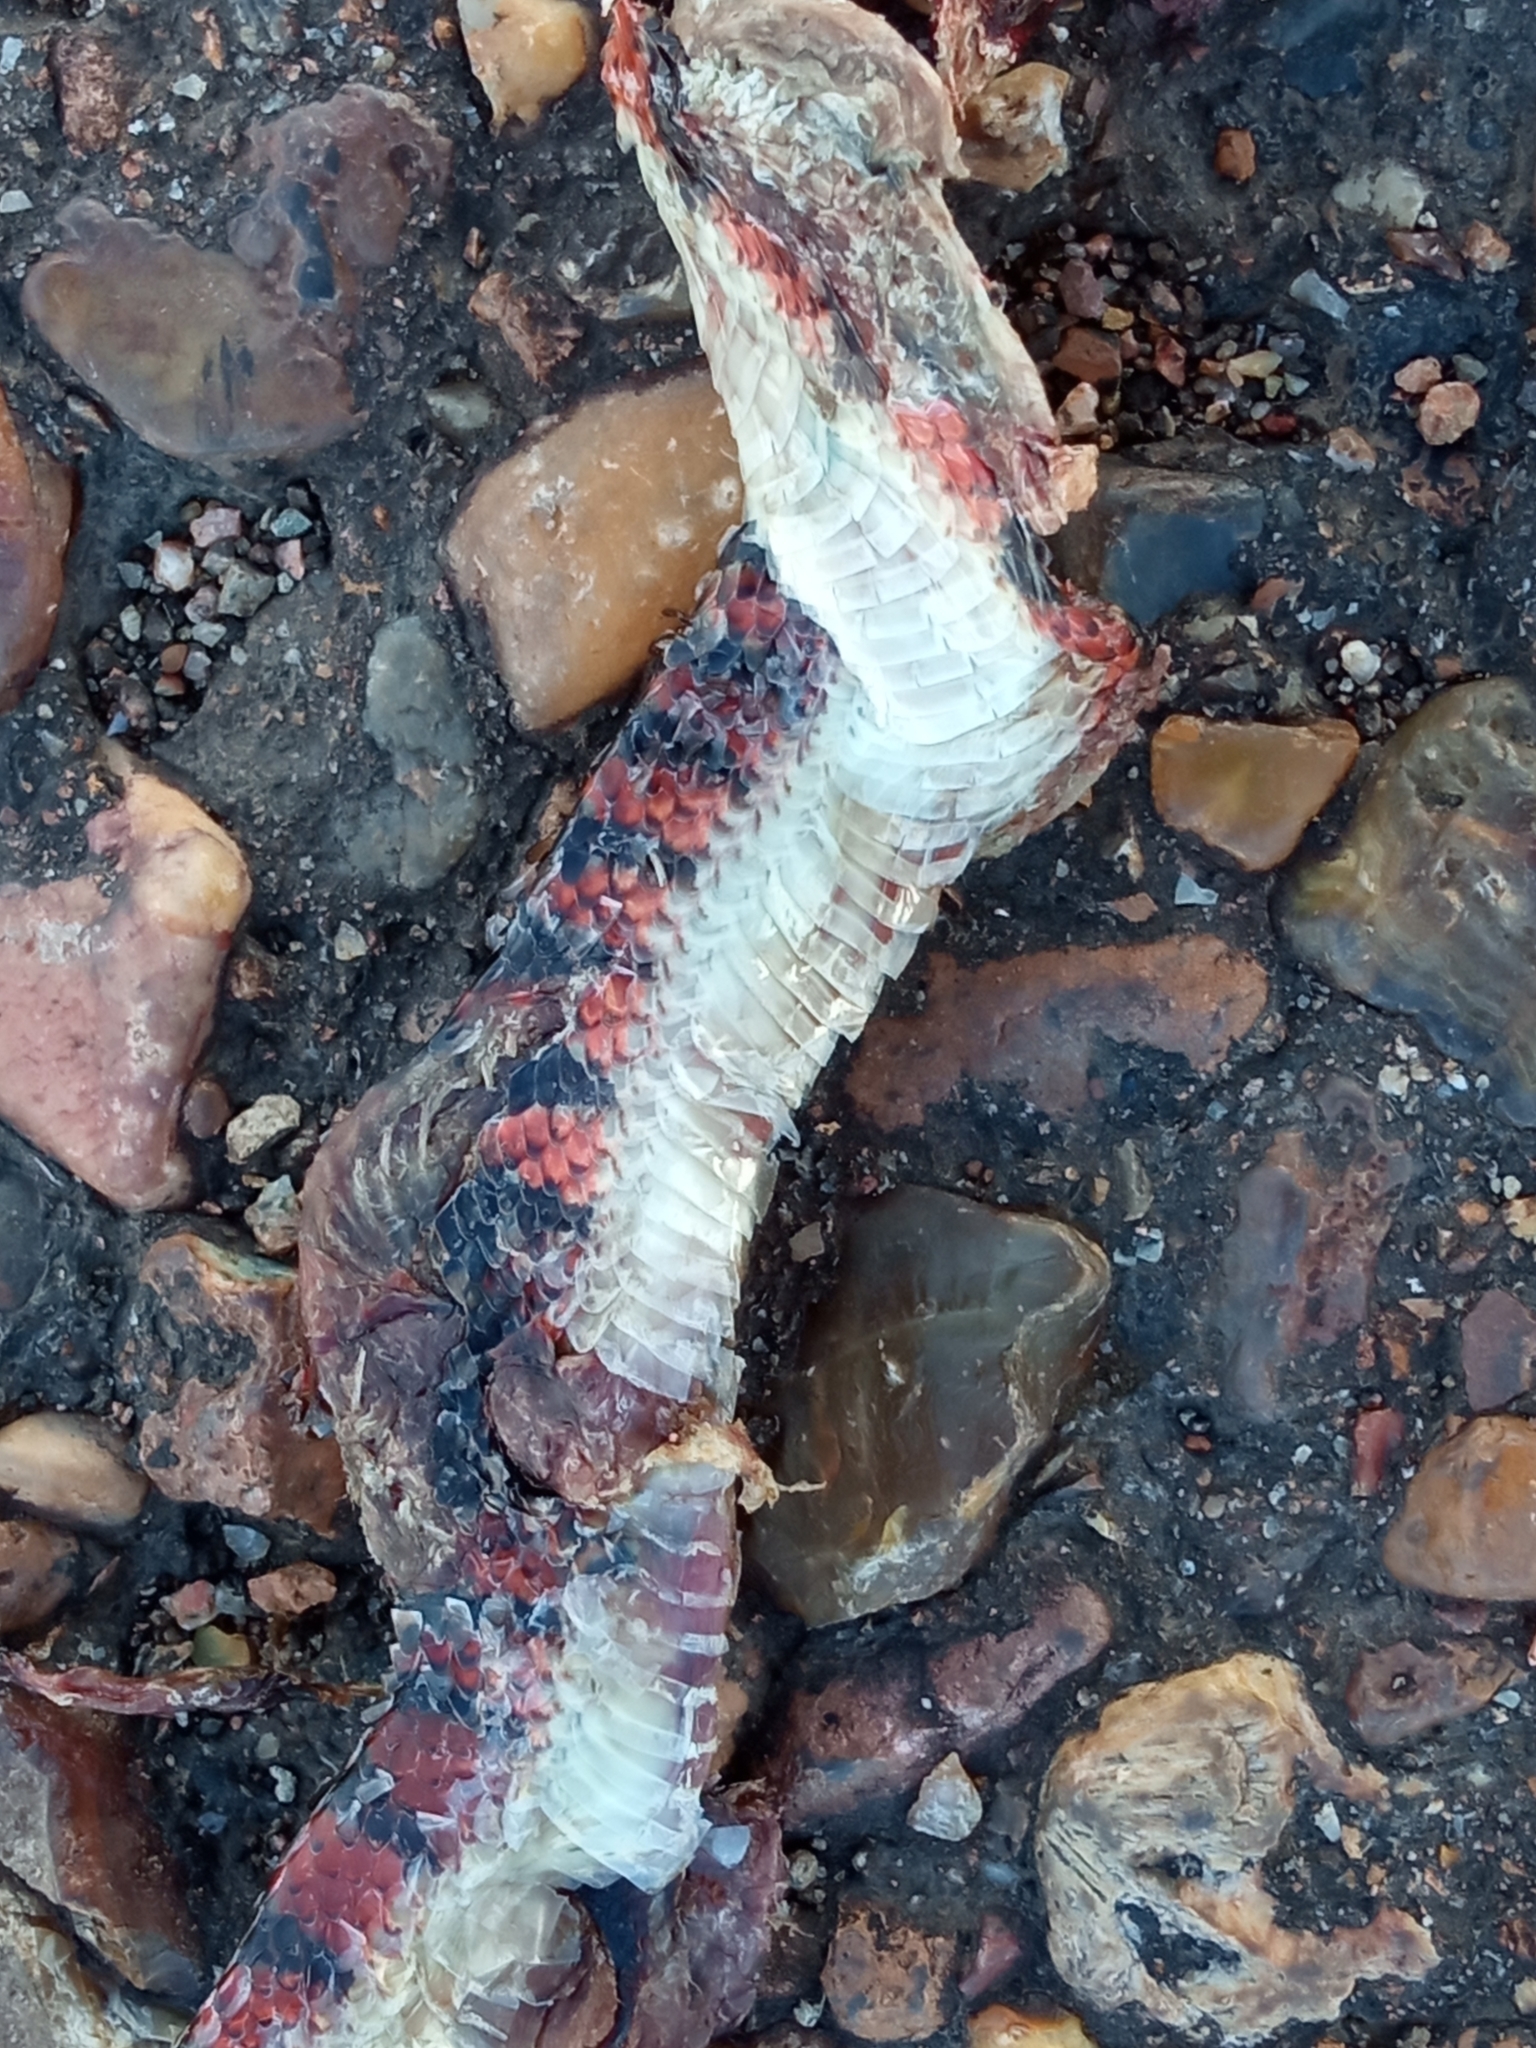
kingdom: Animalia
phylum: Chordata
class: Squamata
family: Colubridae
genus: Oxyrhopus
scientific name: Oxyrhopus rhombifer
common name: Amazon false coral snake
